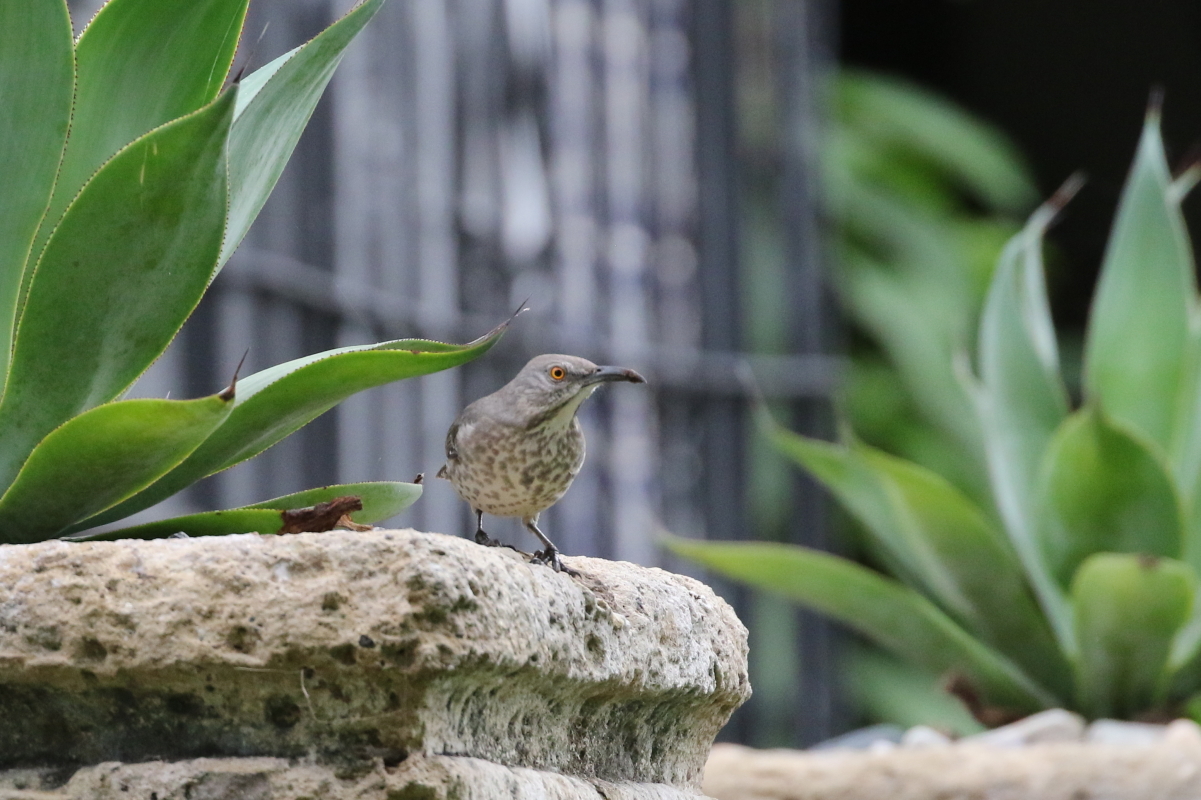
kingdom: Animalia
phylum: Chordata
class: Aves
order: Passeriformes
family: Mimidae
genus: Toxostoma
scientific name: Toxostoma curvirostre
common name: Curve-billed thrasher
